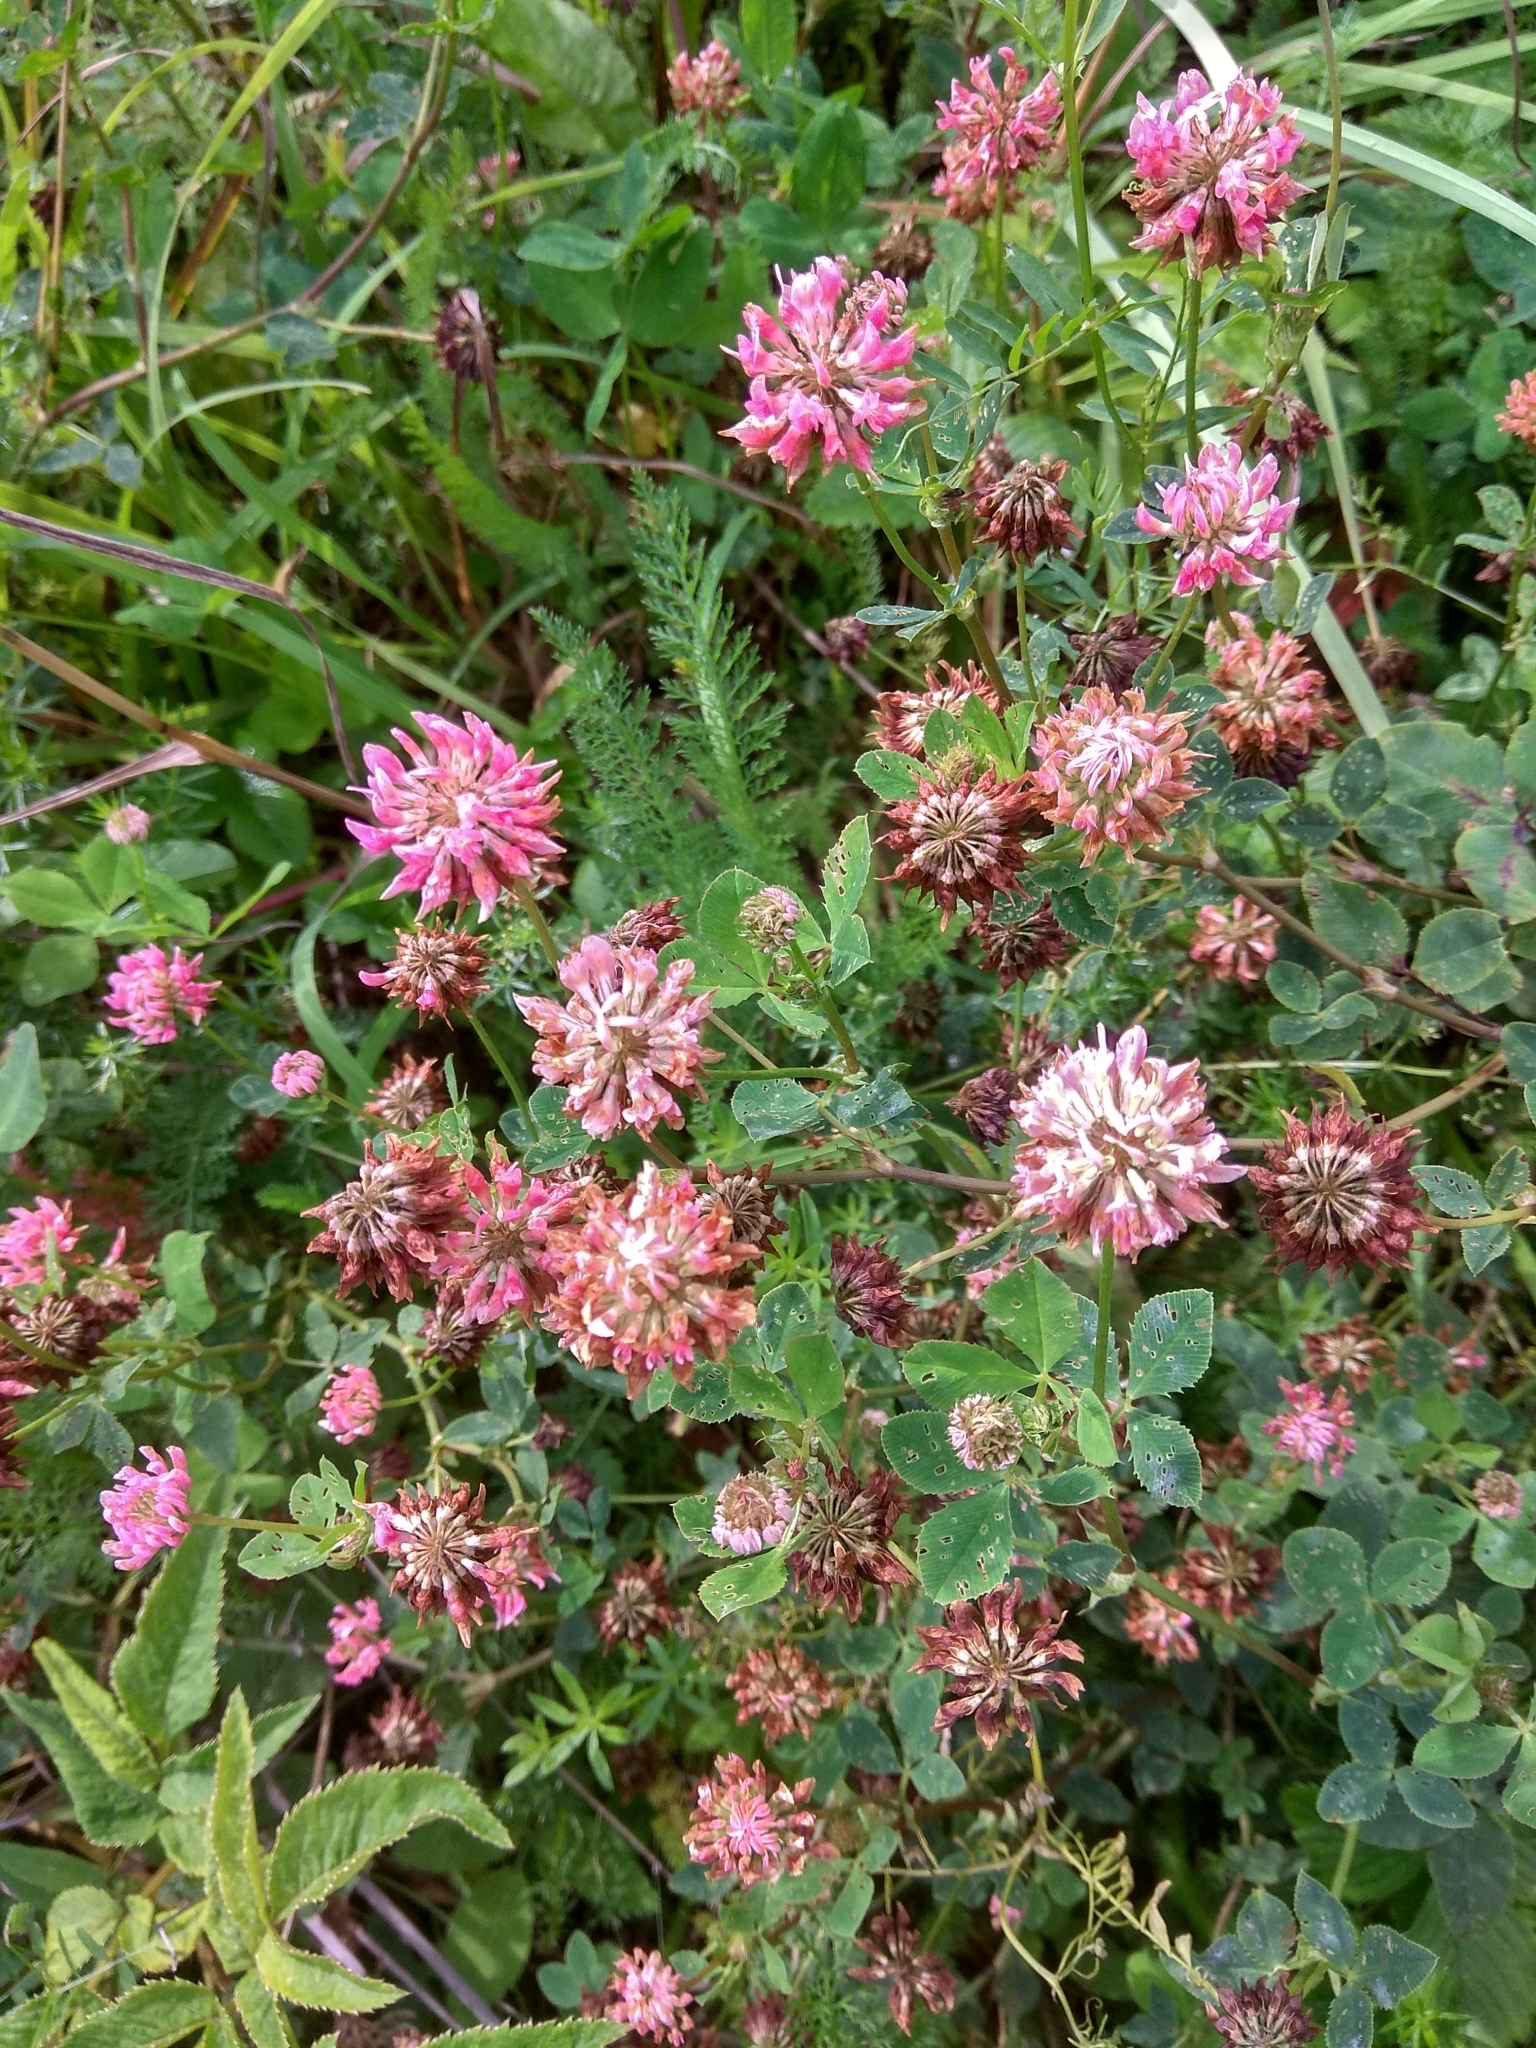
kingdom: Plantae
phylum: Tracheophyta
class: Magnoliopsida
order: Fabales
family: Fabaceae
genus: Trifolium
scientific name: Trifolium hybridum
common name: Alsike clover
